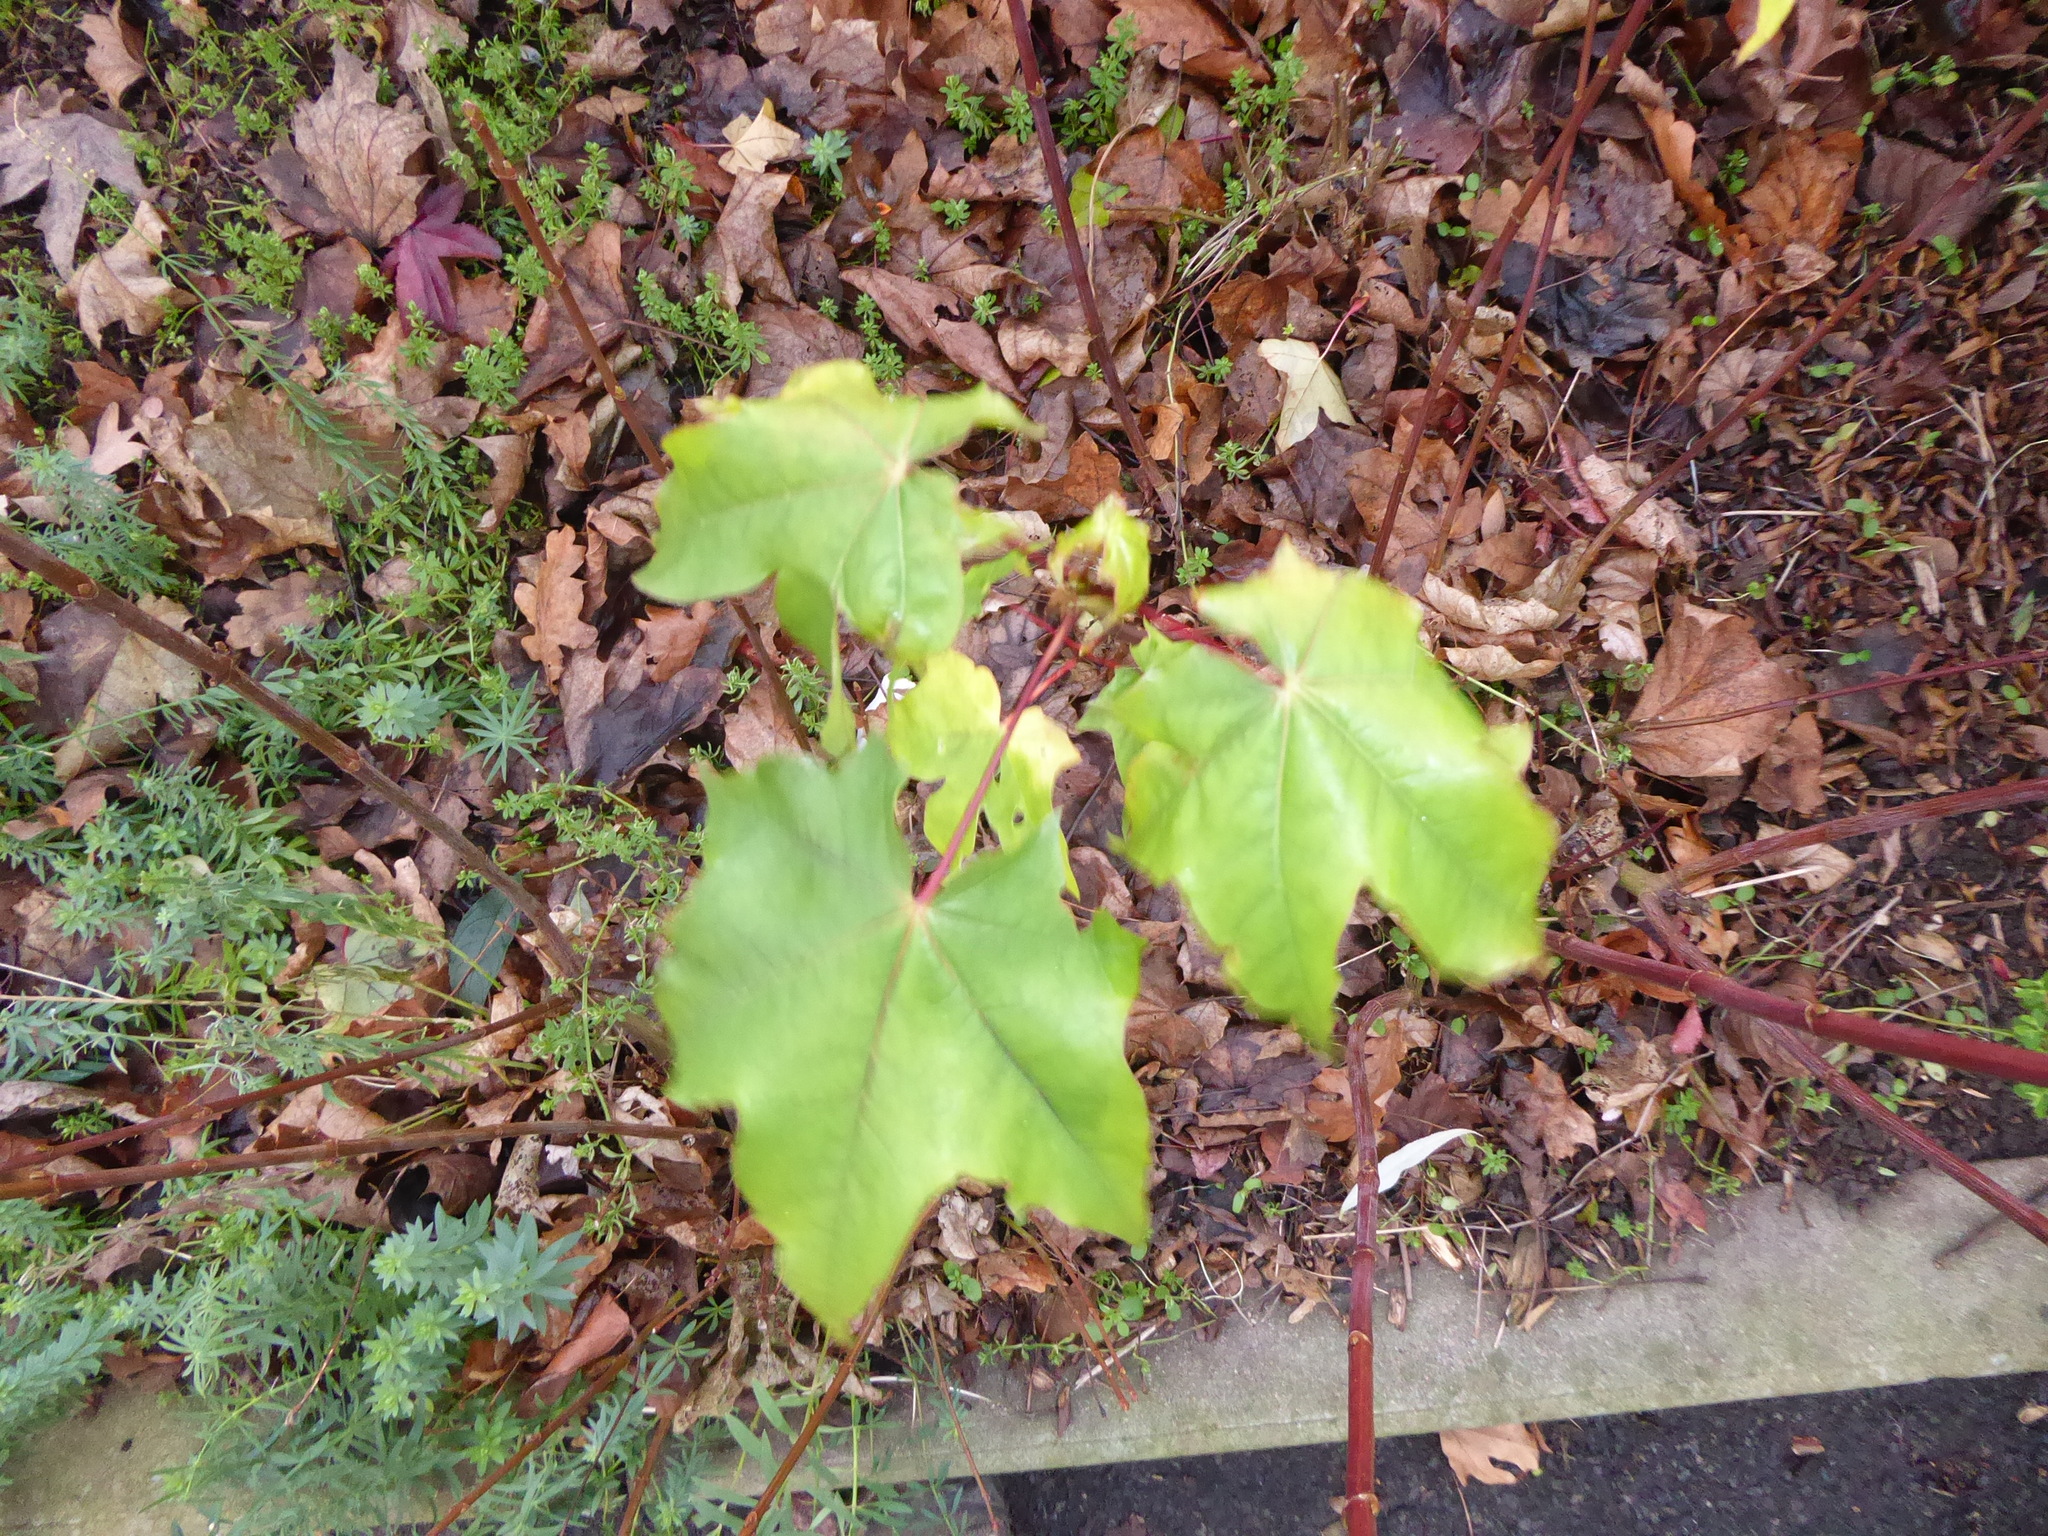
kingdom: Plantae
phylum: Tracheophyta
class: Magnoliopsida
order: Sapindales
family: Sapindaceae
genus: Acer
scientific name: Acer cappadocicum
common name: Cappadocian maple
